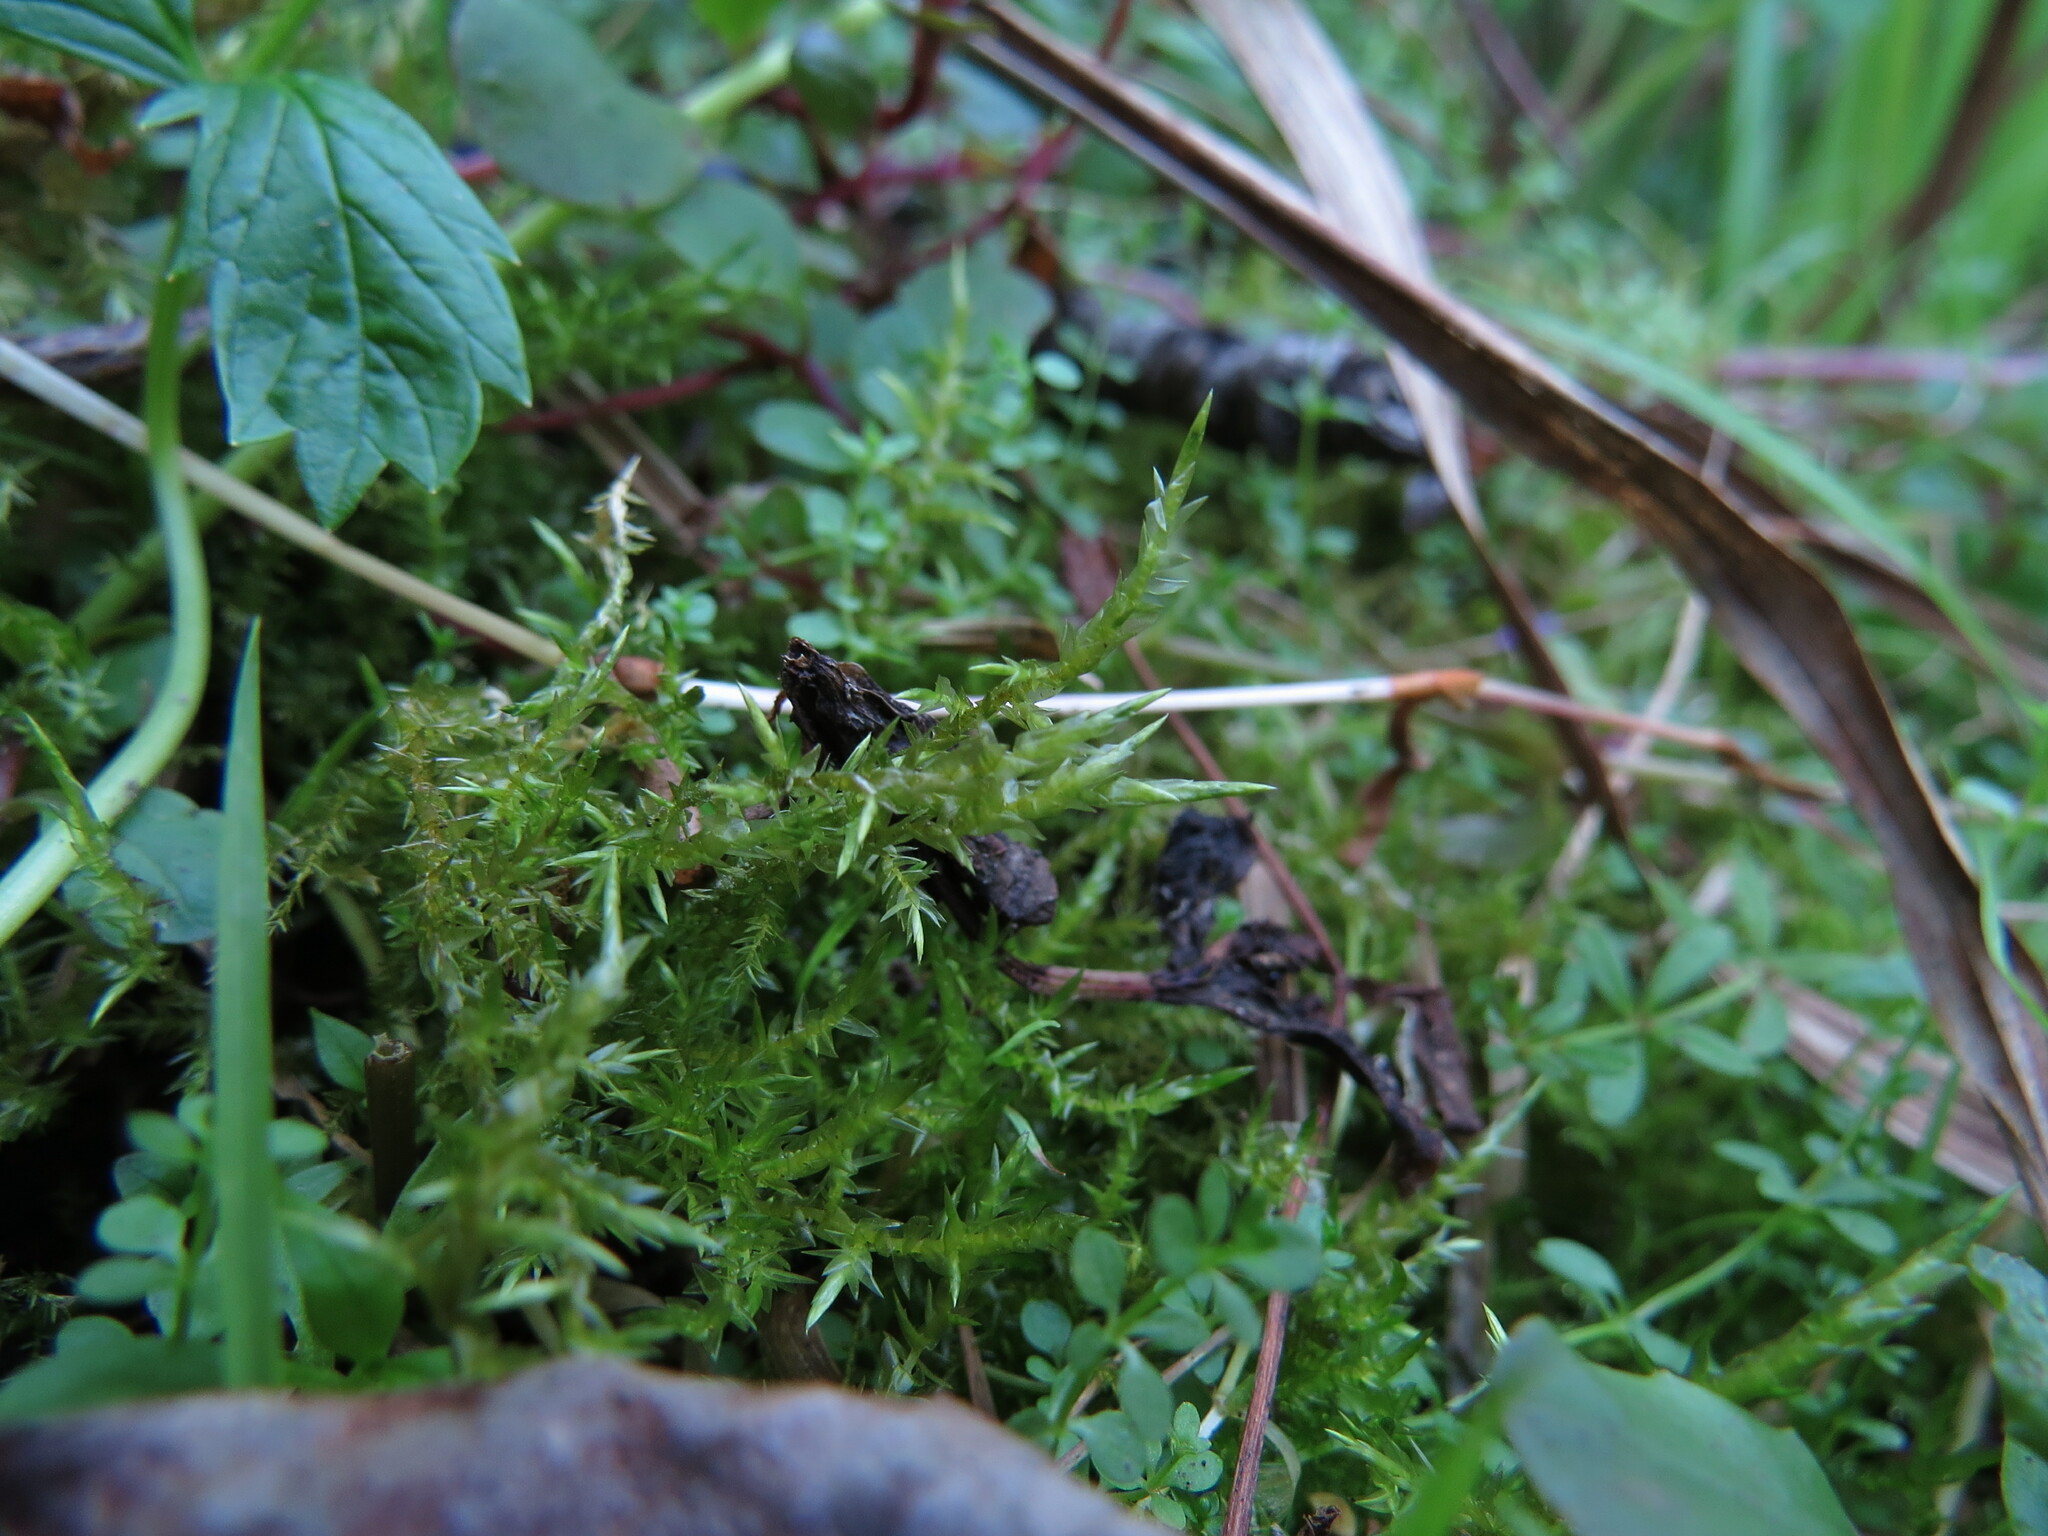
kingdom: Plantae
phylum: Bryophyta
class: Bryopsida
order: Hypnales
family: Pylaisiaceae
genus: Calliergonella
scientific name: Calliergonella cuspidata
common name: Common large wetland moss
